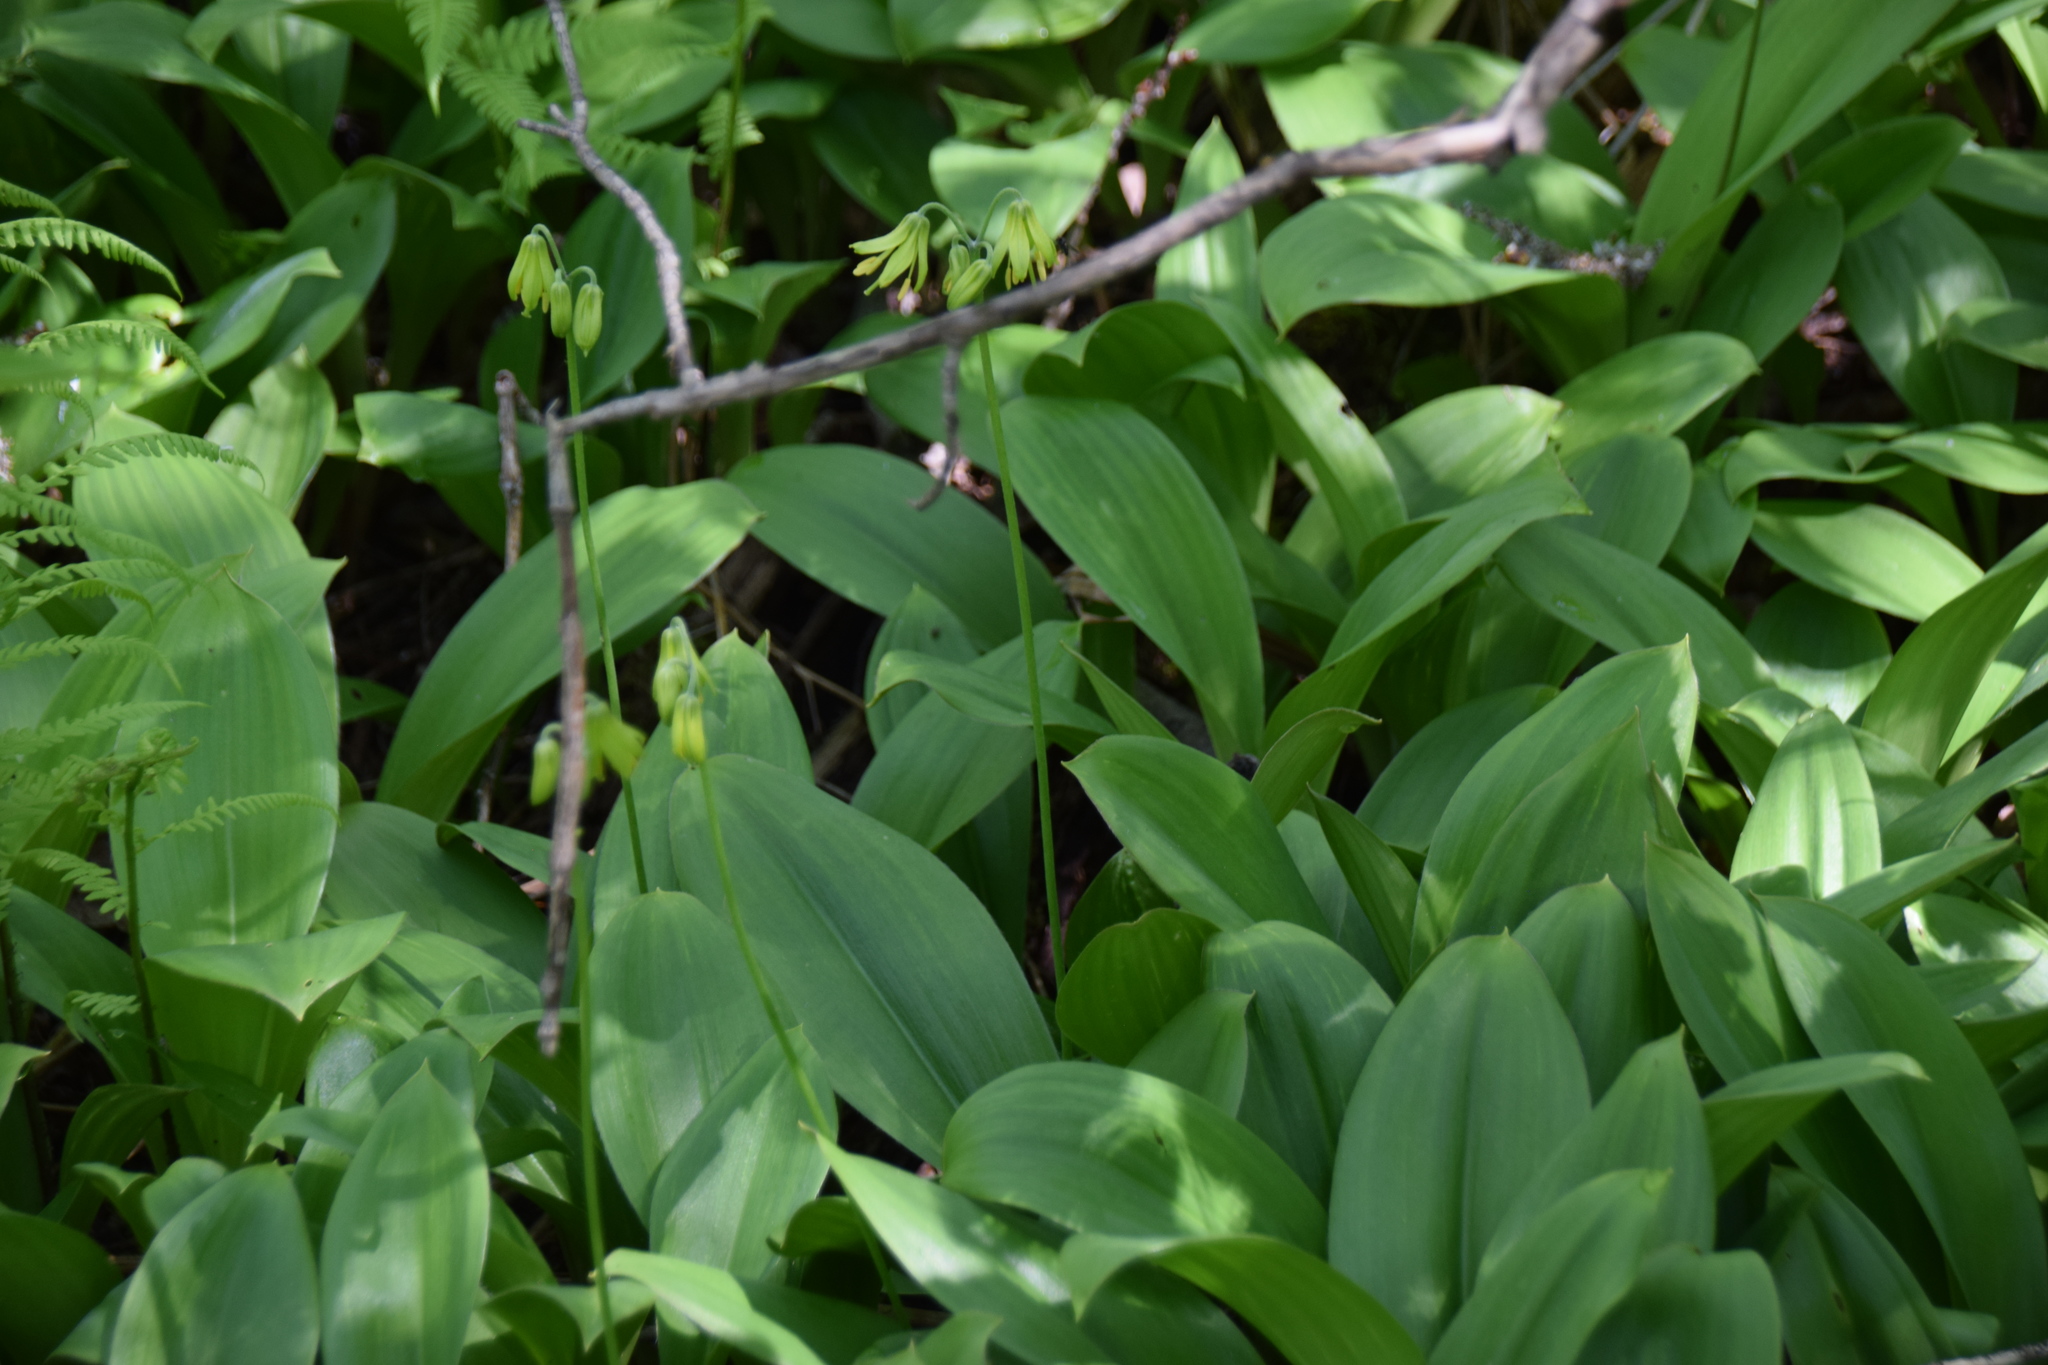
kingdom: Plantae
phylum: Tracheophyta
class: Liliopsida
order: Liliales
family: Liliaceae
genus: Clintonia
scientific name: Clintonia borealis
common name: Yellow clintonia
